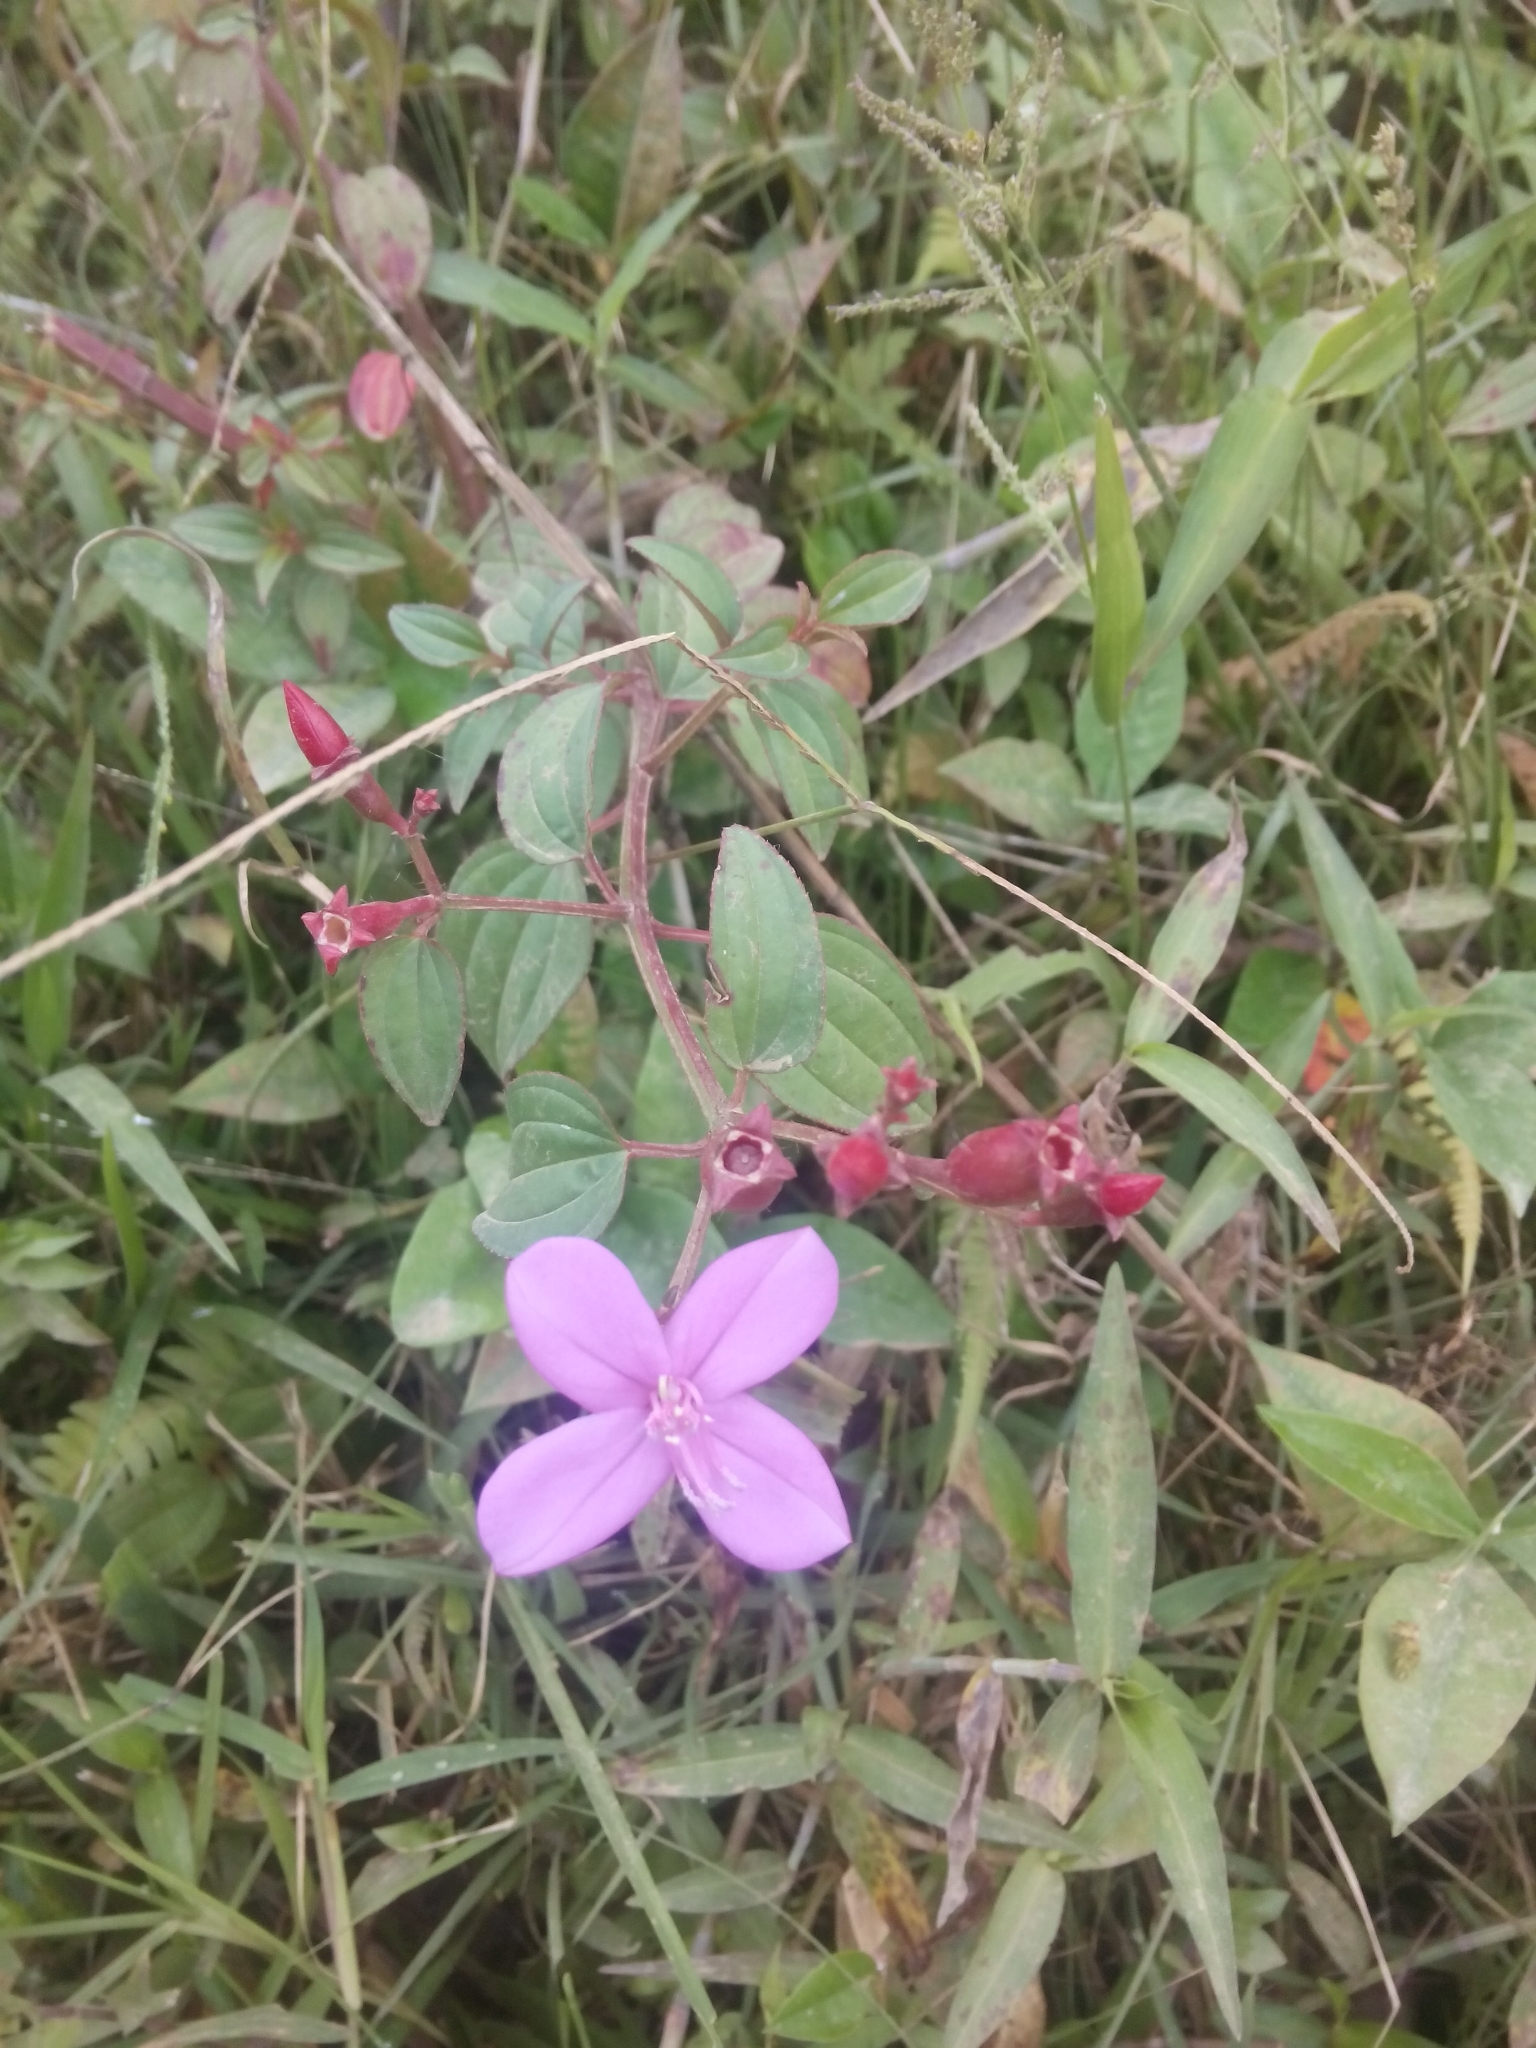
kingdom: Plantae
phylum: Tracheophyta
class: Magnoliopsida
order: Myrtales
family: Melastomataceae
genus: Arthrostemma
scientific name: Arthrostemma ciliatum
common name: Everblooming eavender
